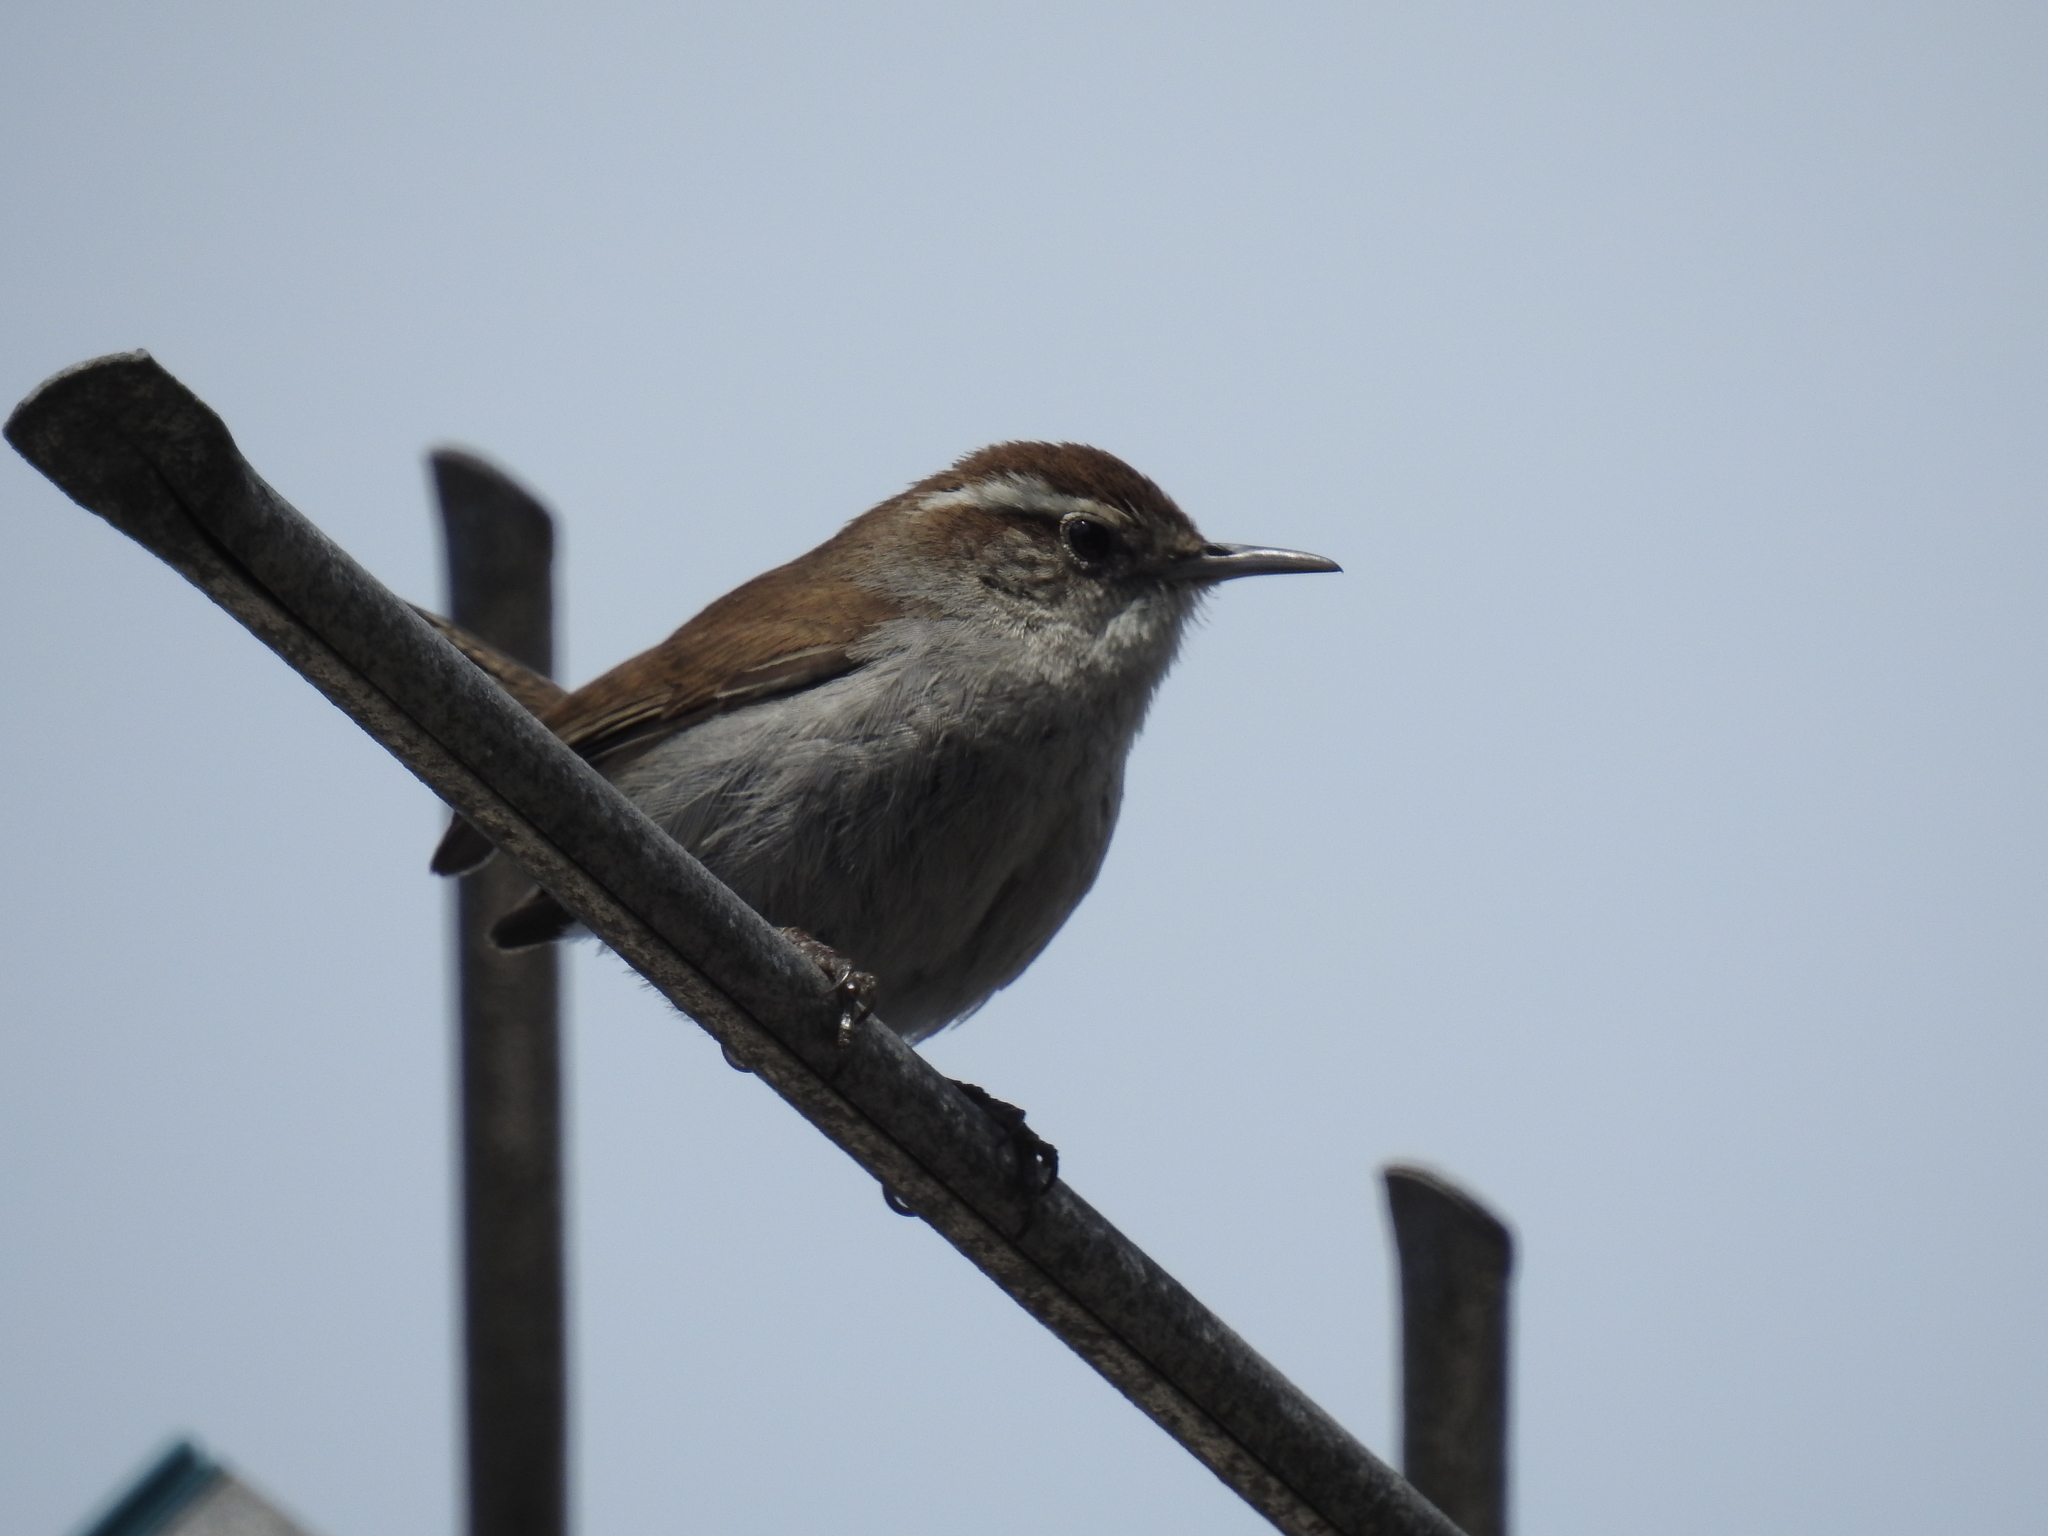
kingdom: Animalia
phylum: Chordata
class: Aves
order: Passeriformes
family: Troglodytidae
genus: Thryomanes
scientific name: Thryomanes bewickii
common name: Bewick's wren
